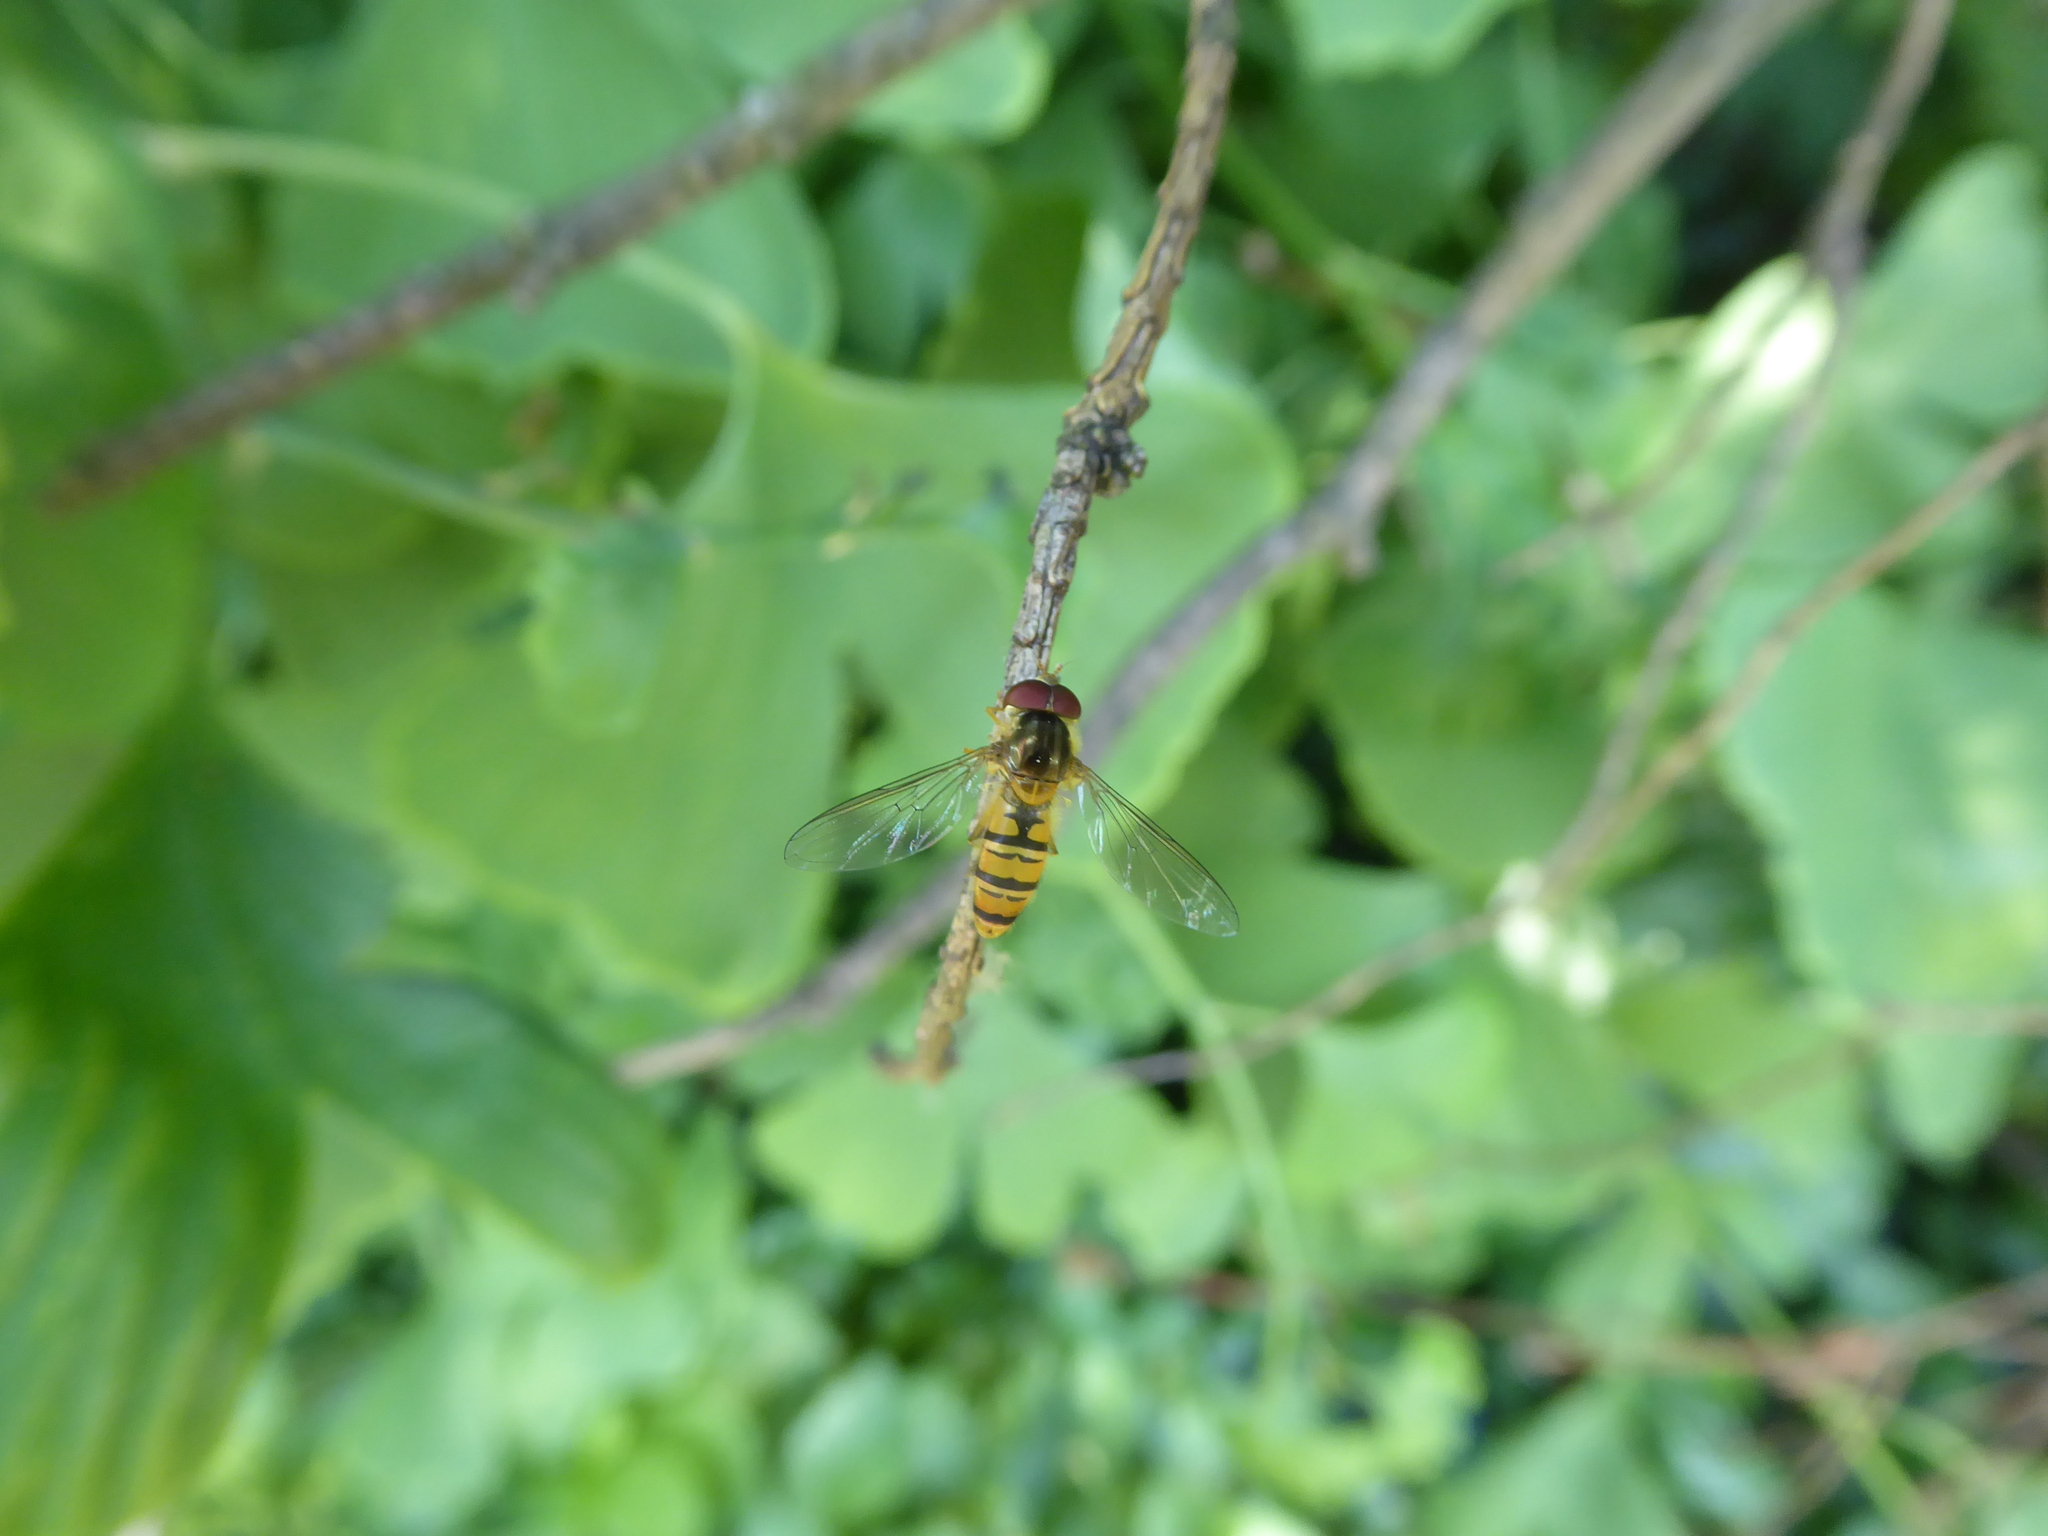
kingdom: Animalia
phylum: Arthropoda
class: Insecta
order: Diptera
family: Syrphidae
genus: Episyrphus
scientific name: Episyrphus balteatus
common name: Marmalade hoverfly
